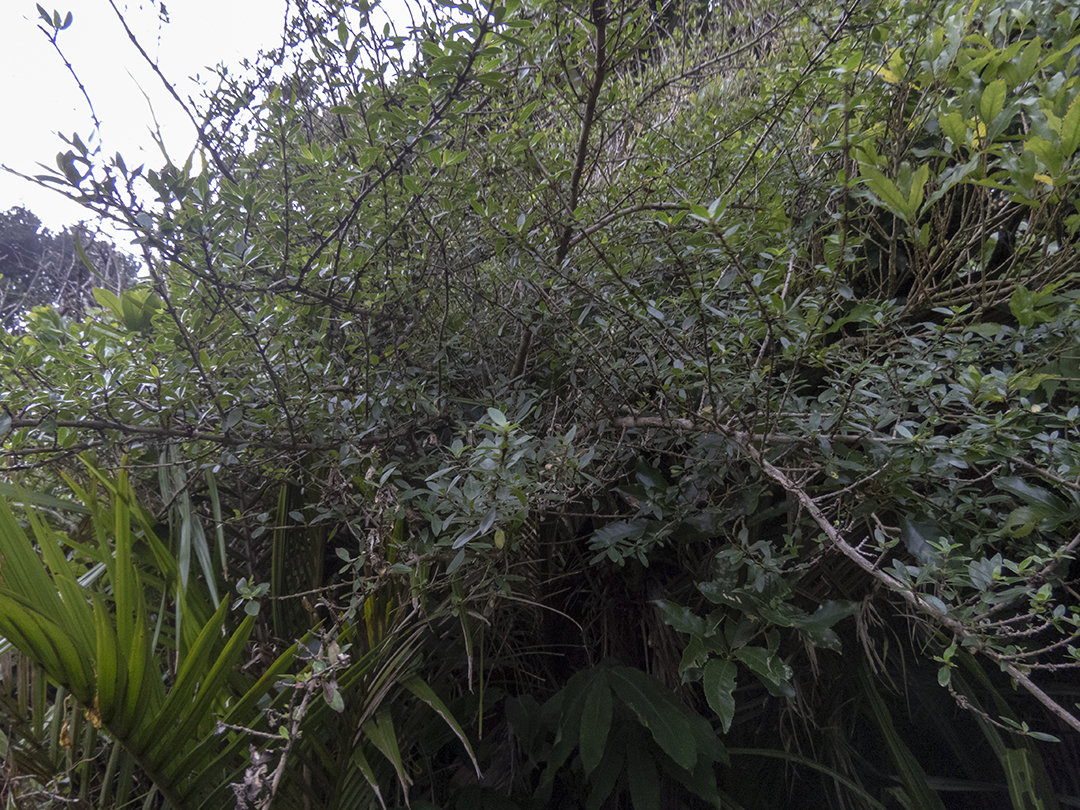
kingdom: Plantae
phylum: Tracheophyta
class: Magnoliopsida
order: Gentianales
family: Rubiaceae
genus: Coprosma
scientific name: Coprosma cunninghamii
